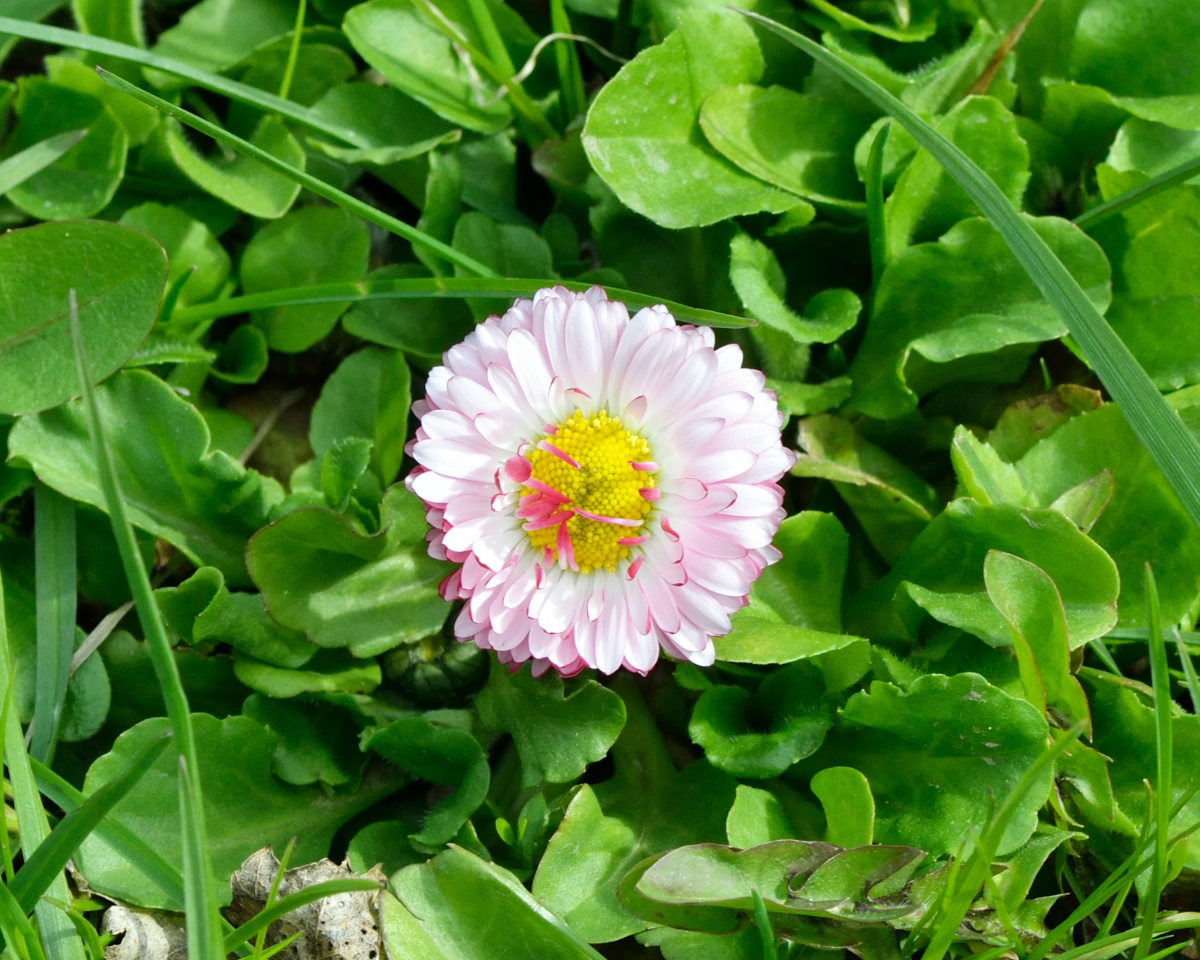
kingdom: Plantae
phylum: Tracheophyta
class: Magnoliopsida
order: Asterales
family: Asteraceae
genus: Bellis
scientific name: Bellis perennis
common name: Lawndaisy
